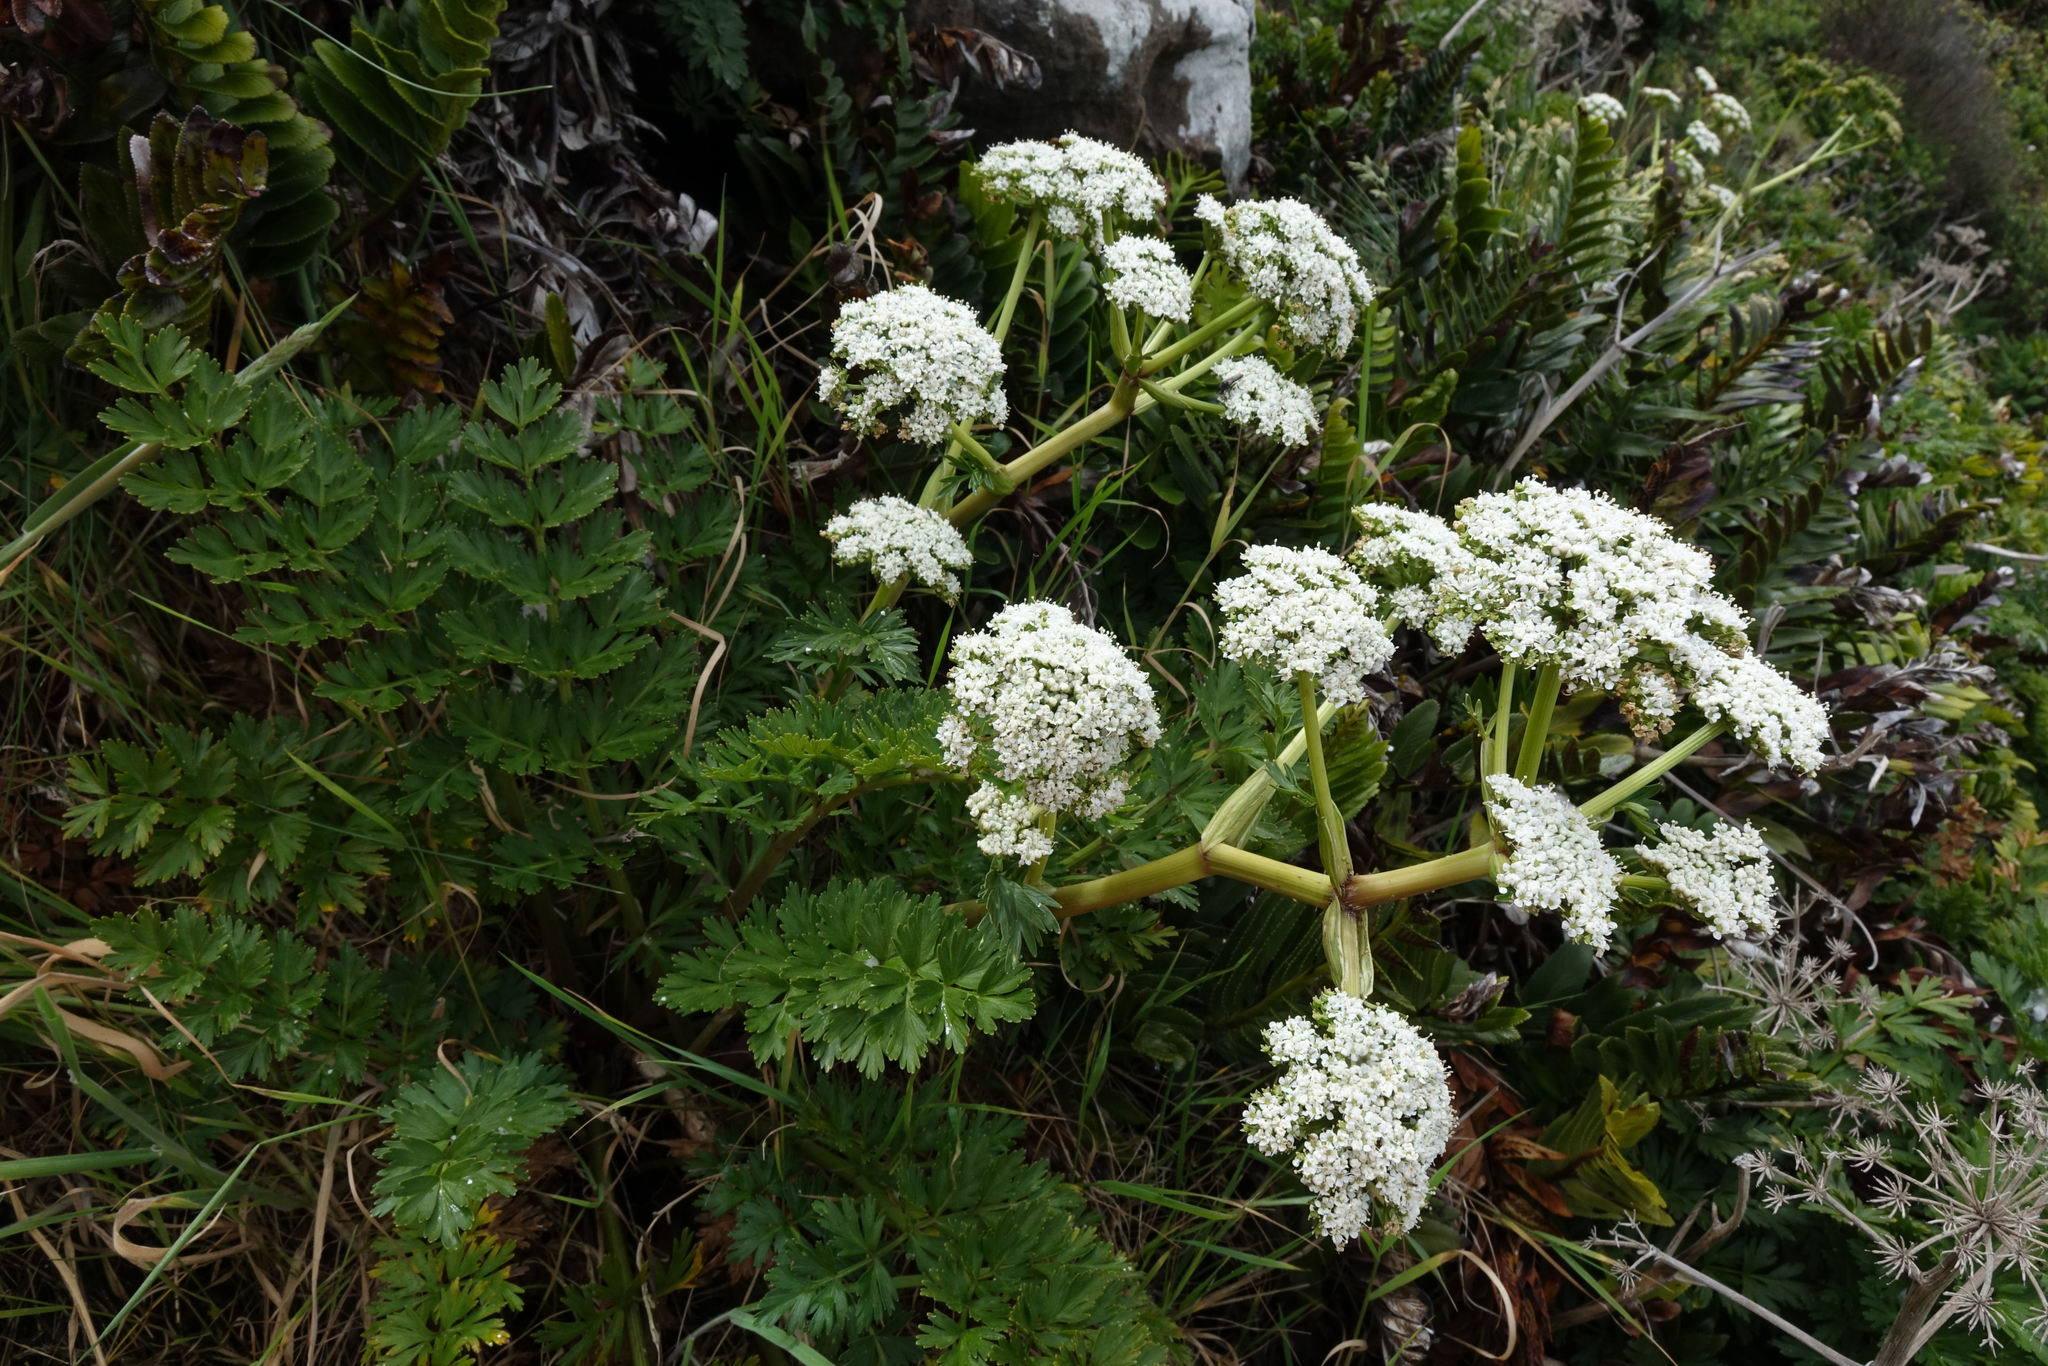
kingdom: Plantae
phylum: Tracheophyta
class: Magnoliopsida
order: Apiales
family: Apiaceae
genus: Anisotome
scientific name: Anisotome lyallii
